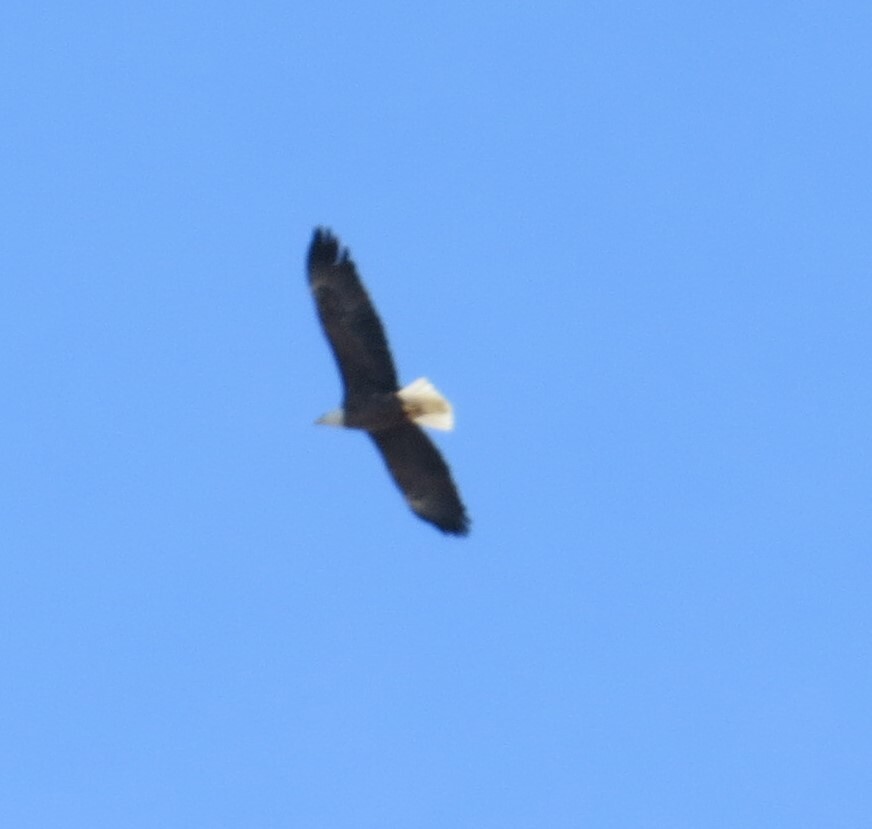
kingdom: Animalia
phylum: Chordata
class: Aves
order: Accipitriformes
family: Accipitridae
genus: Haliaeetus
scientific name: Haliaeetus leucocephalus
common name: Bald eagle
